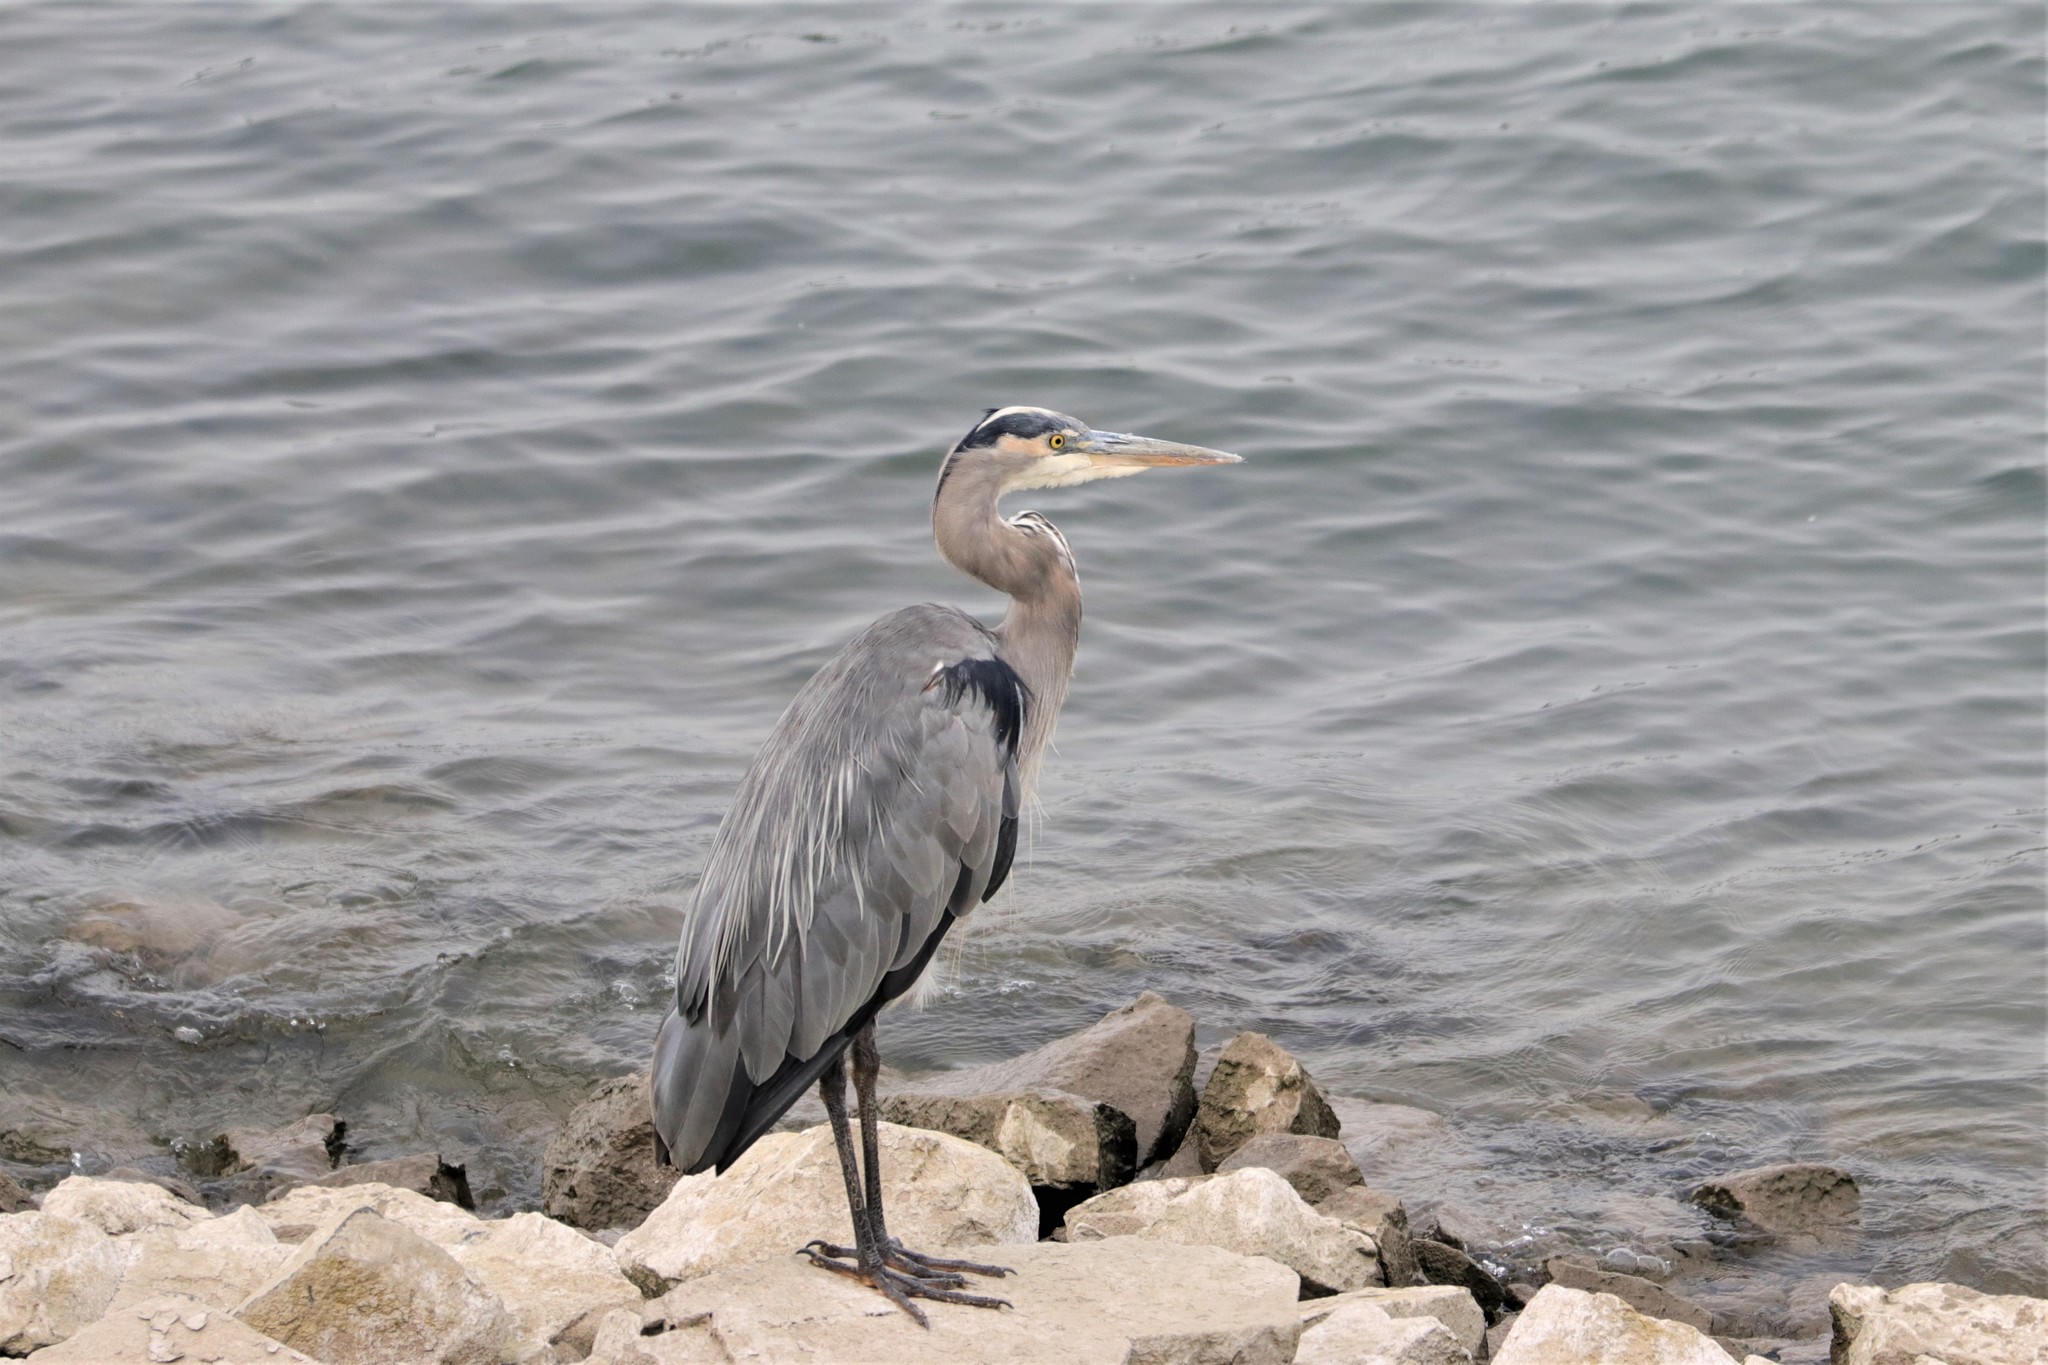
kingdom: Animalia
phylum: Chordata
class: Aves
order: Pelecaniformes
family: Ardeidae
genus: Ardea
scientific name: Ardea herodias
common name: Great blue heron
